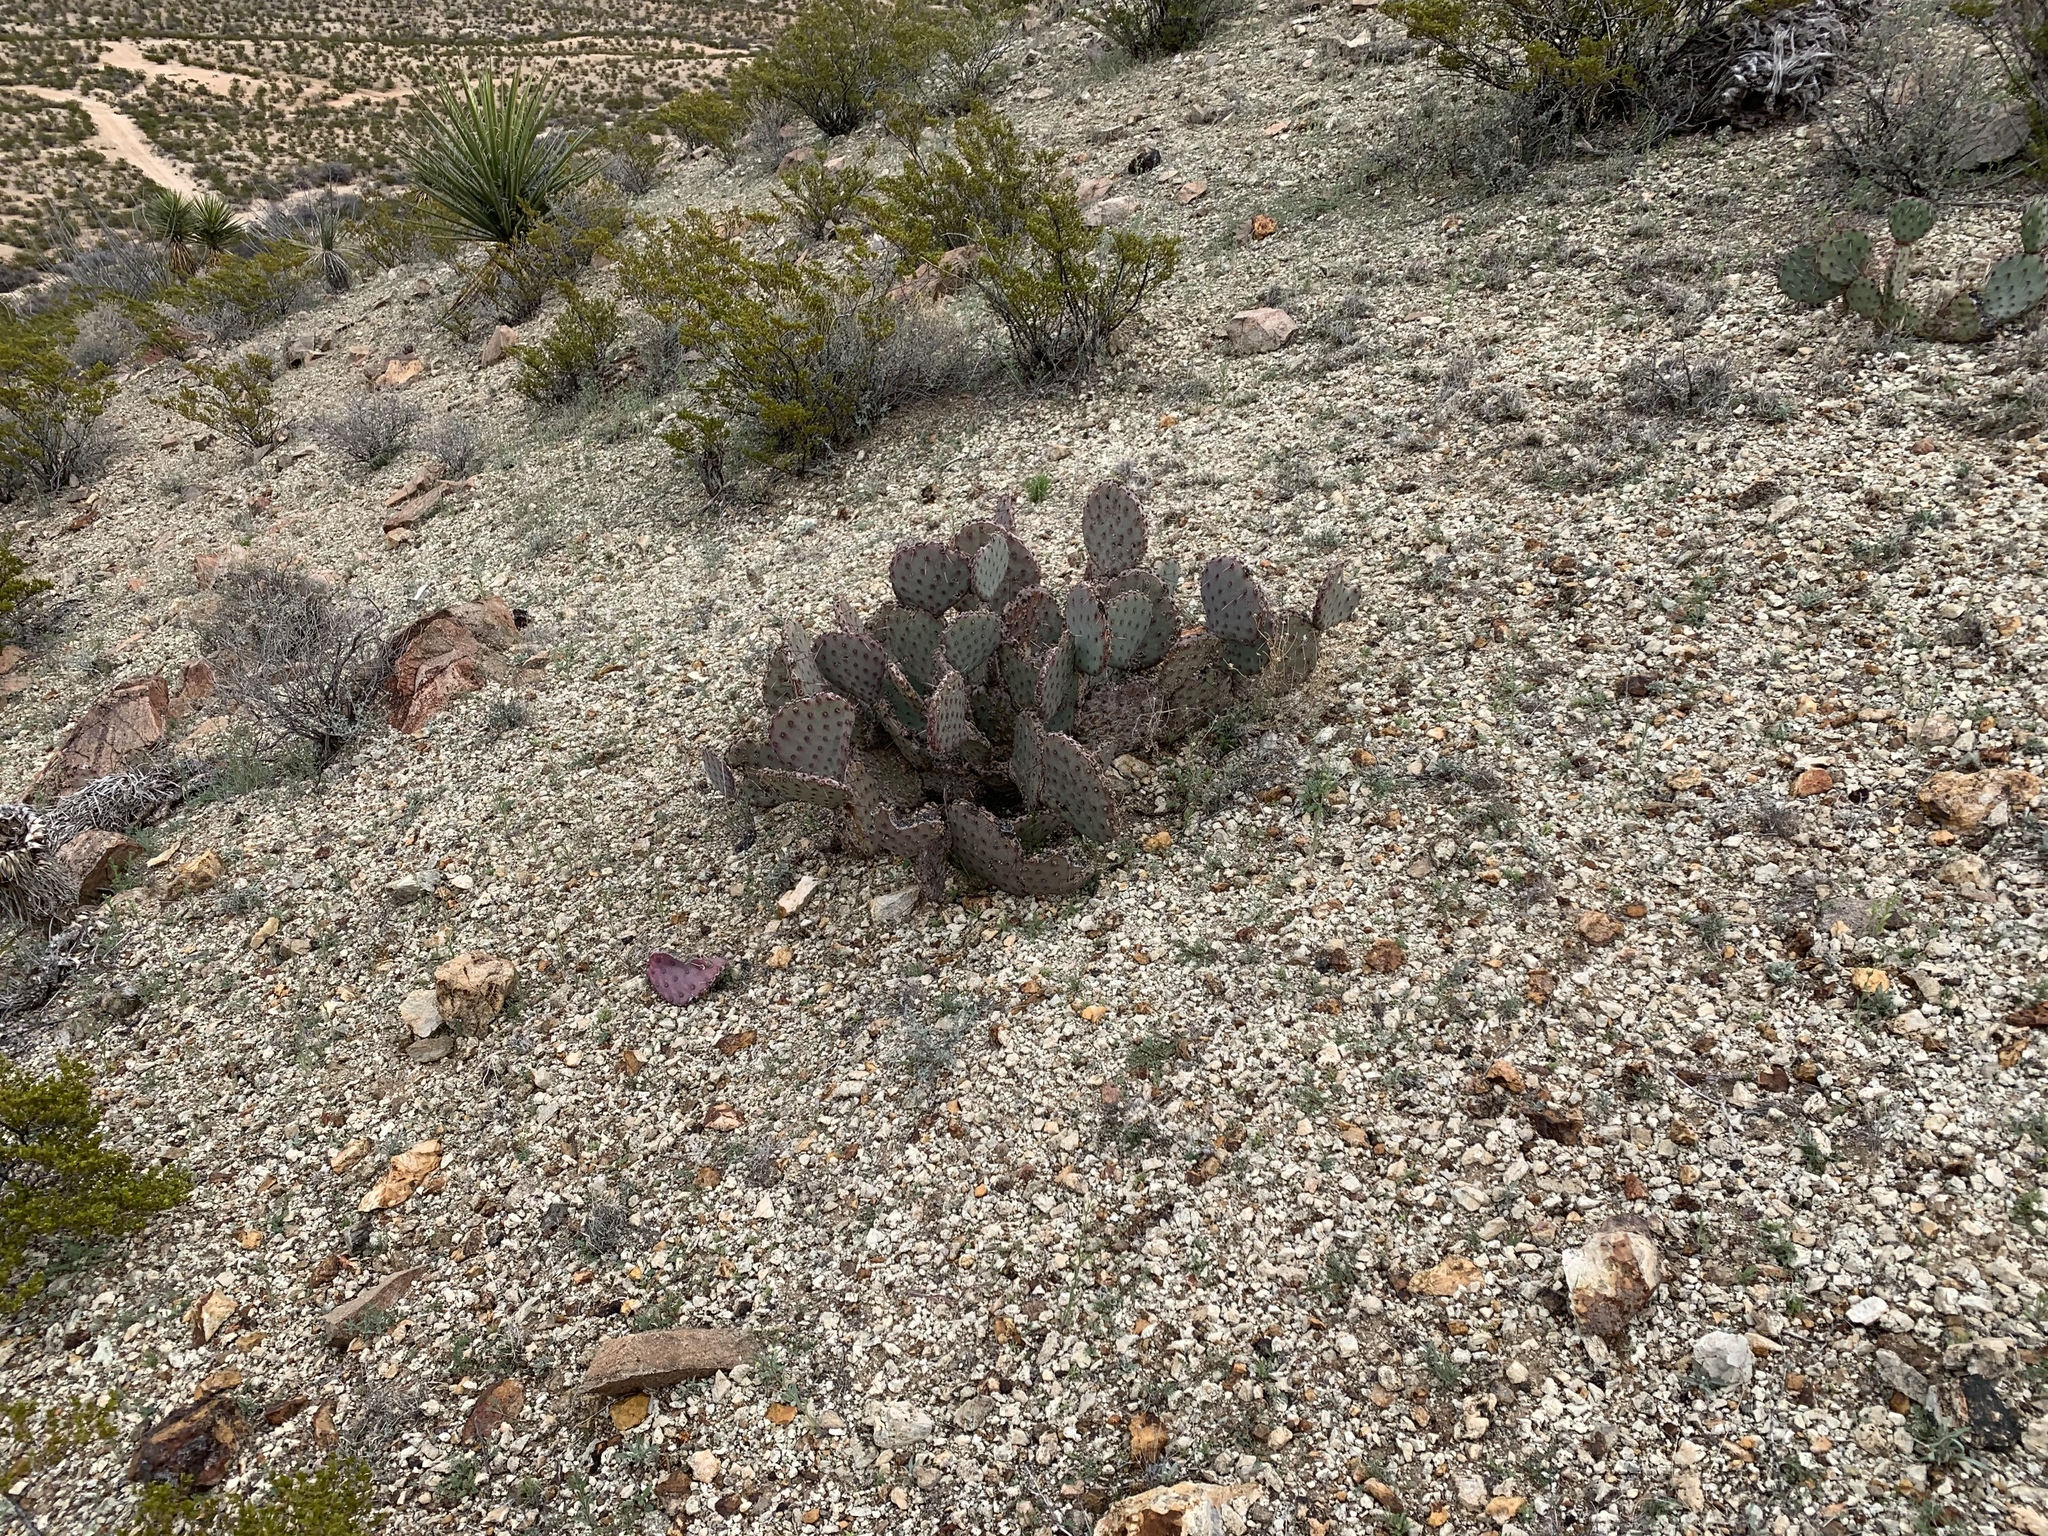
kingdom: Plantae
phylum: Tracheophyta
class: Magnoliopsida
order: Caryophyllales
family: Cactaceae
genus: Opuntia
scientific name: Opuntia macrocentra
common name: Purple prickly-pear
